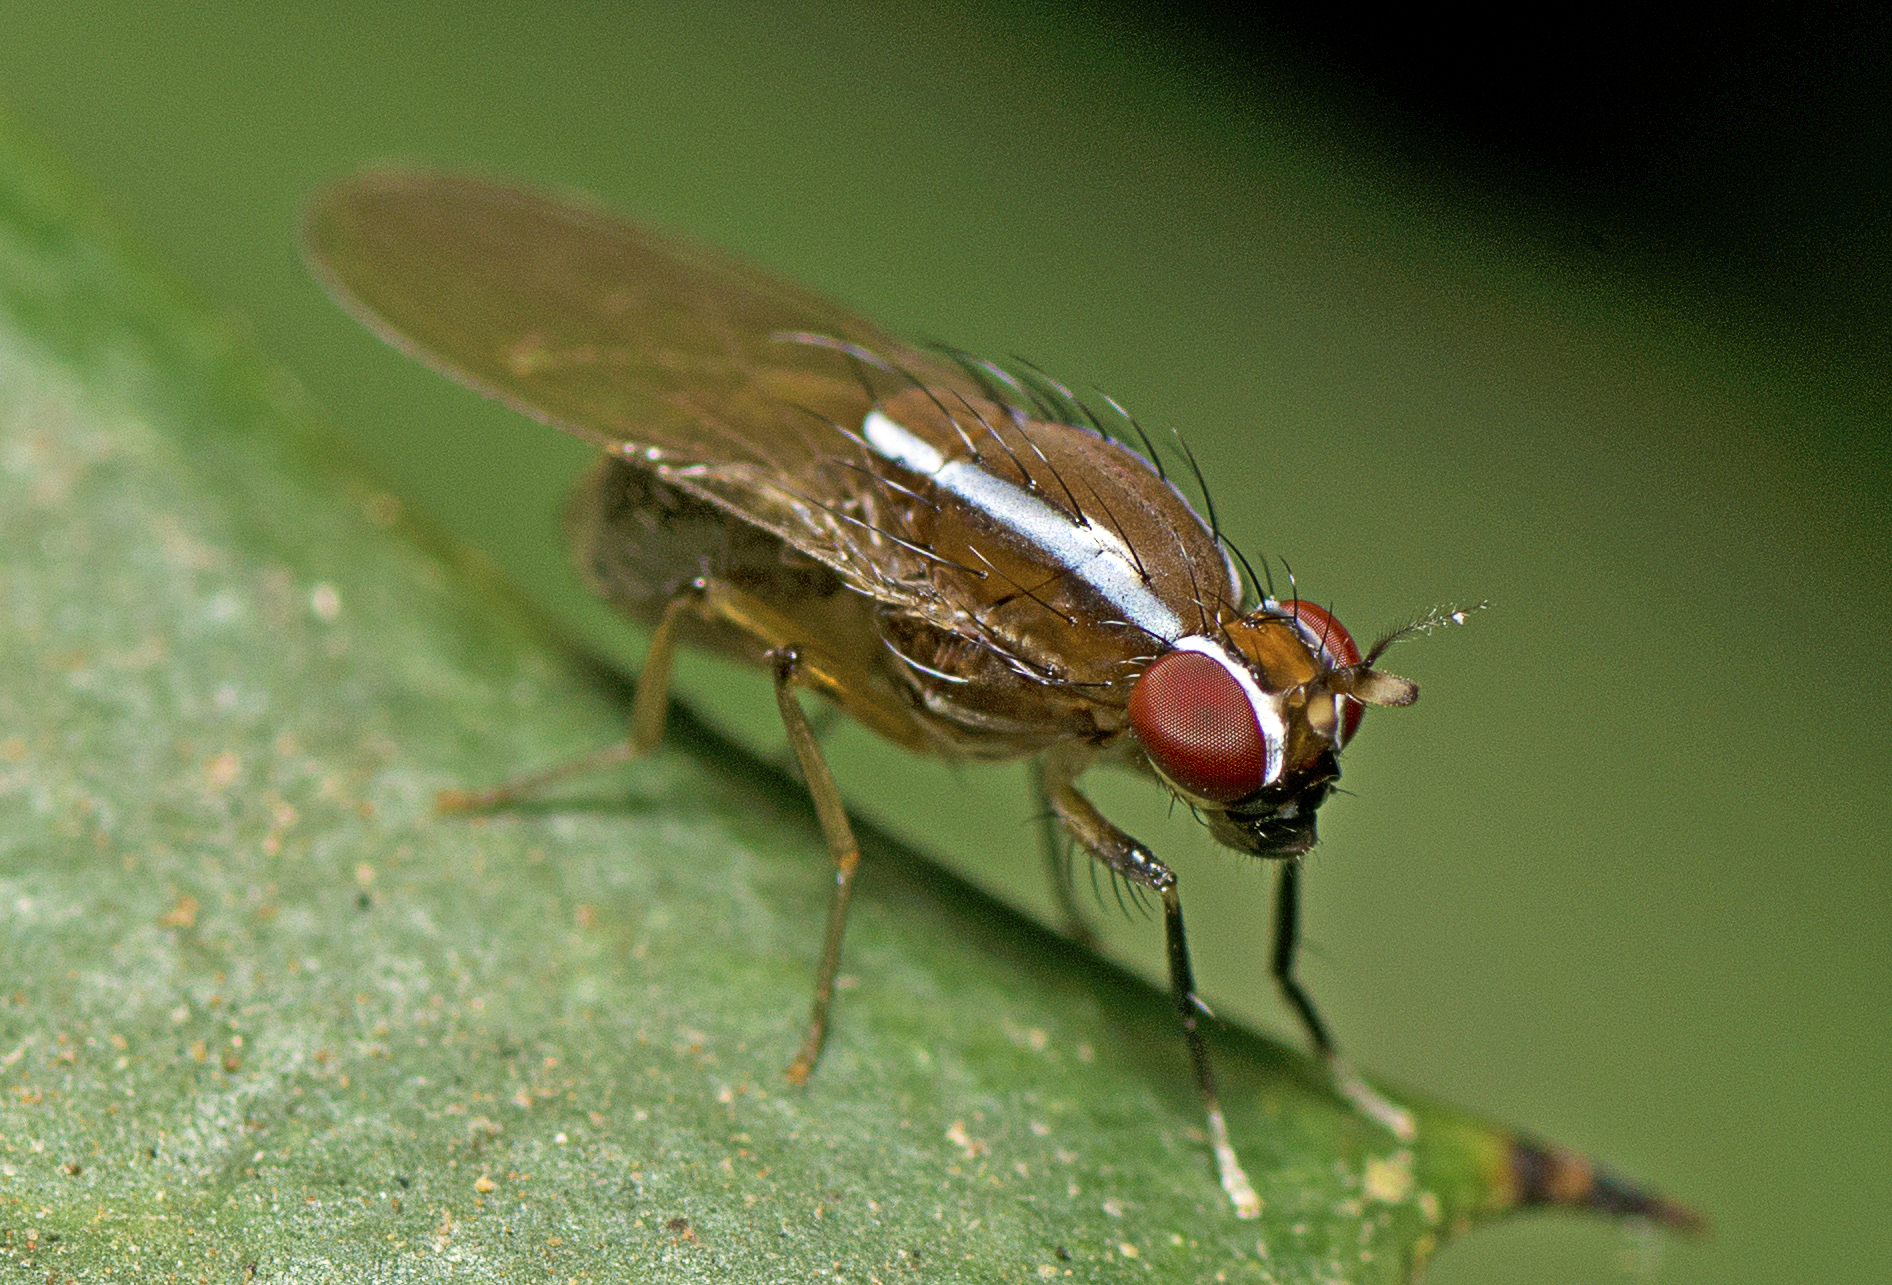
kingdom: Animalia
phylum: Arthropoda
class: Insecta
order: Diptera
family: Lauxaniidae
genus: Poecilohetaerus
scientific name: Poecilohetaerus pinnatus
